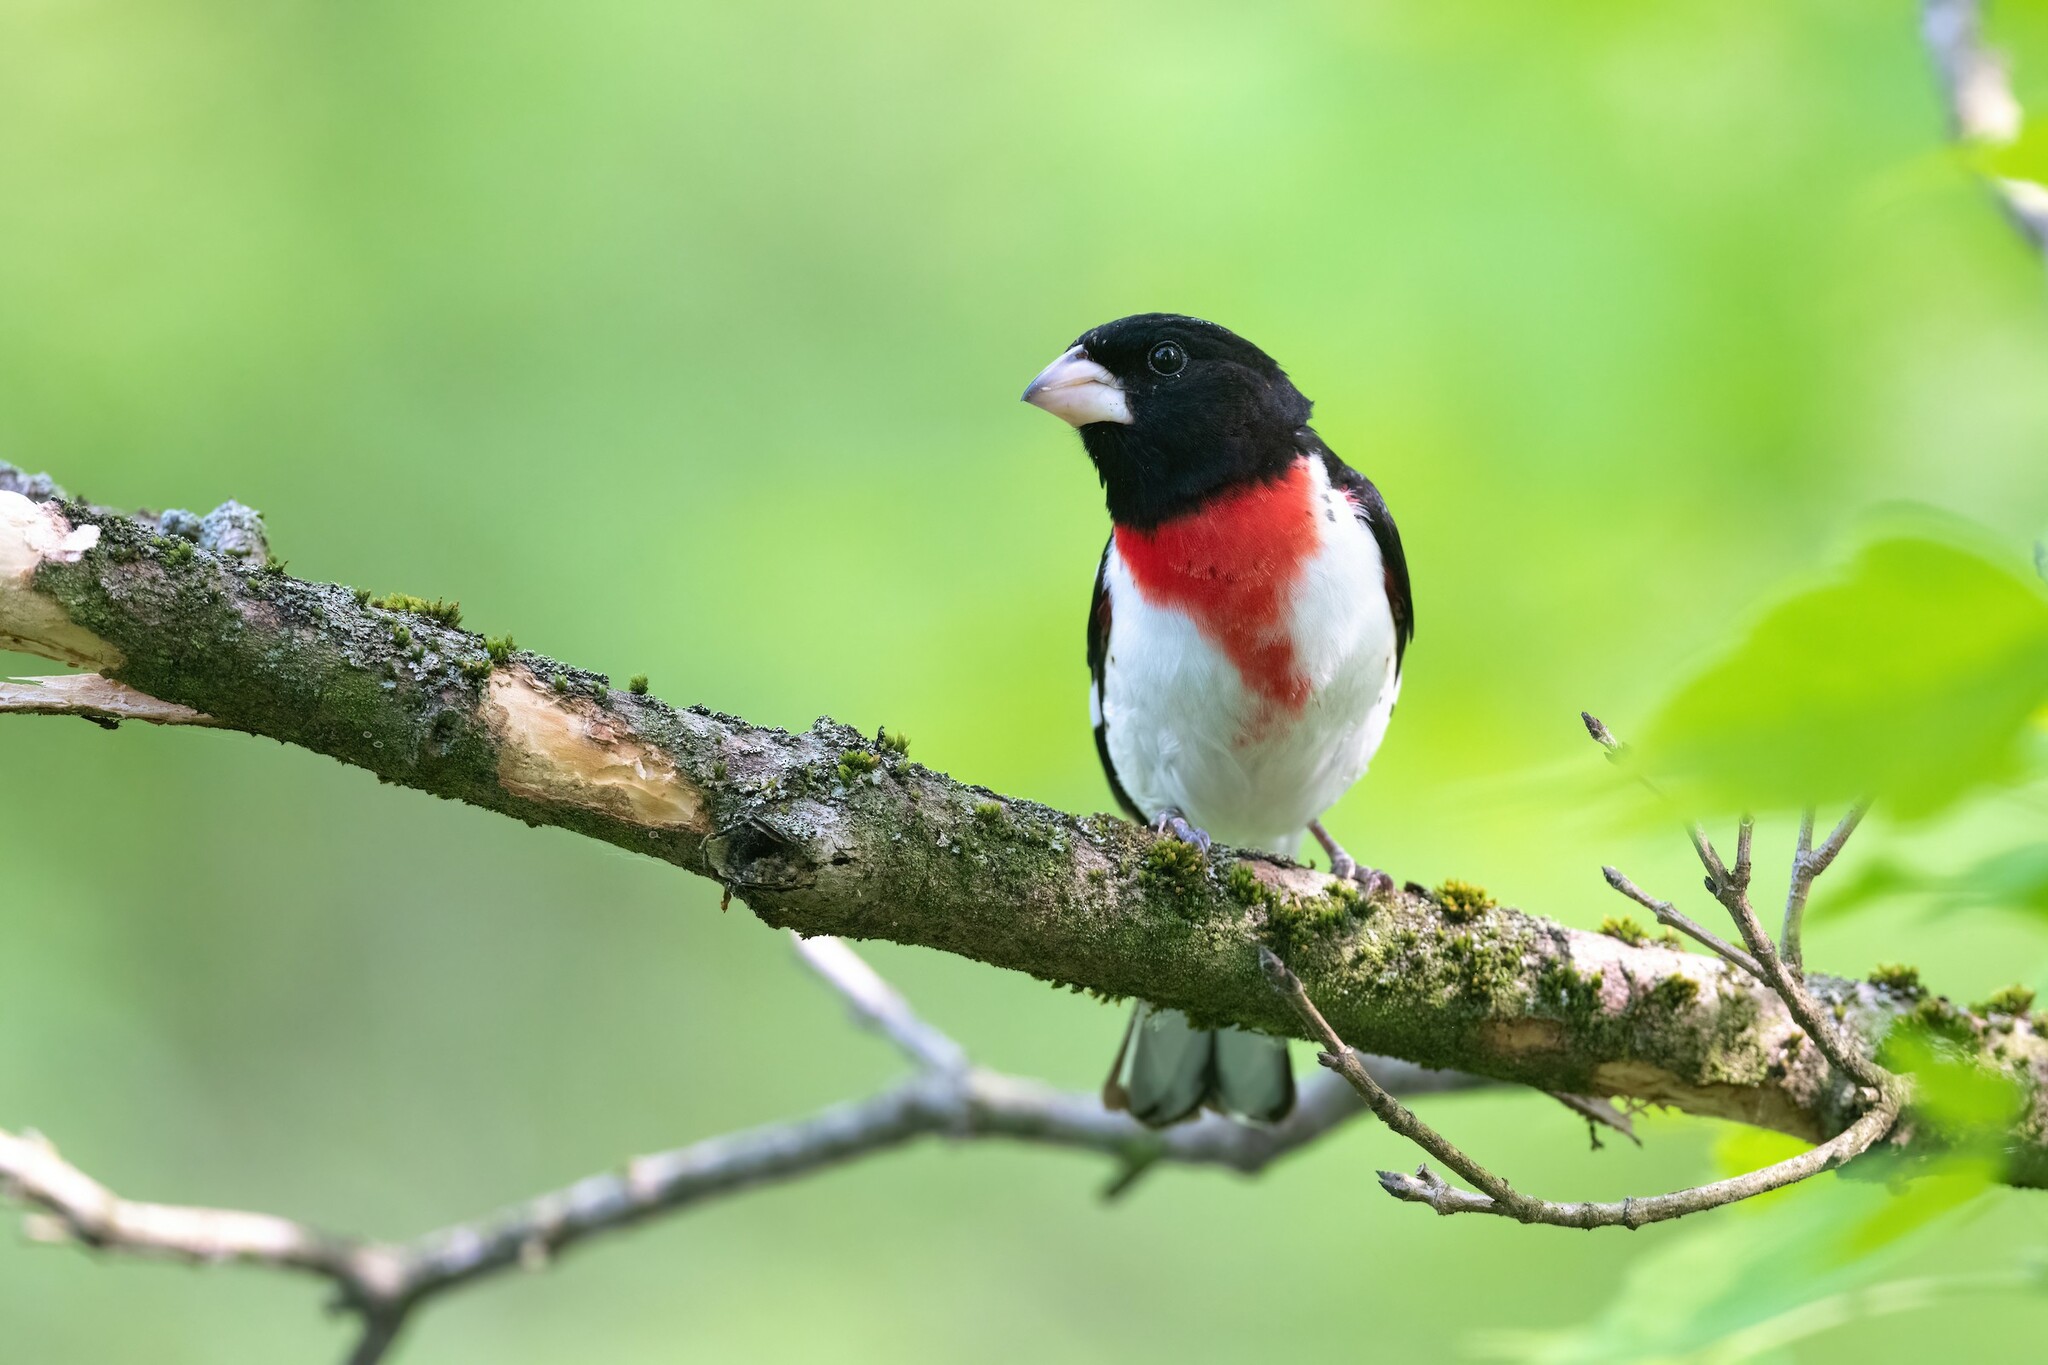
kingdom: Animalia
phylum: Chordata
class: Aves
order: Passeriformes
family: Cardinalidae
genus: Pheucticus
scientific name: Pheucticus ludovicianus
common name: Rose-breasted grosbeak
